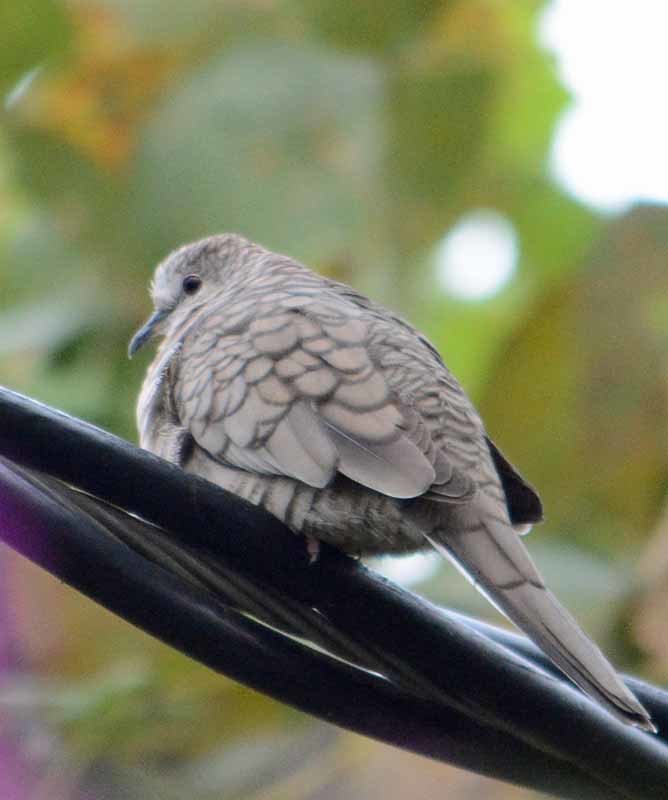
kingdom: Animalia
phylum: Chordata
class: Aves
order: Columbiformes
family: Columbidae
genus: Columbina
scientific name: Columbina inca
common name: Inca dove
